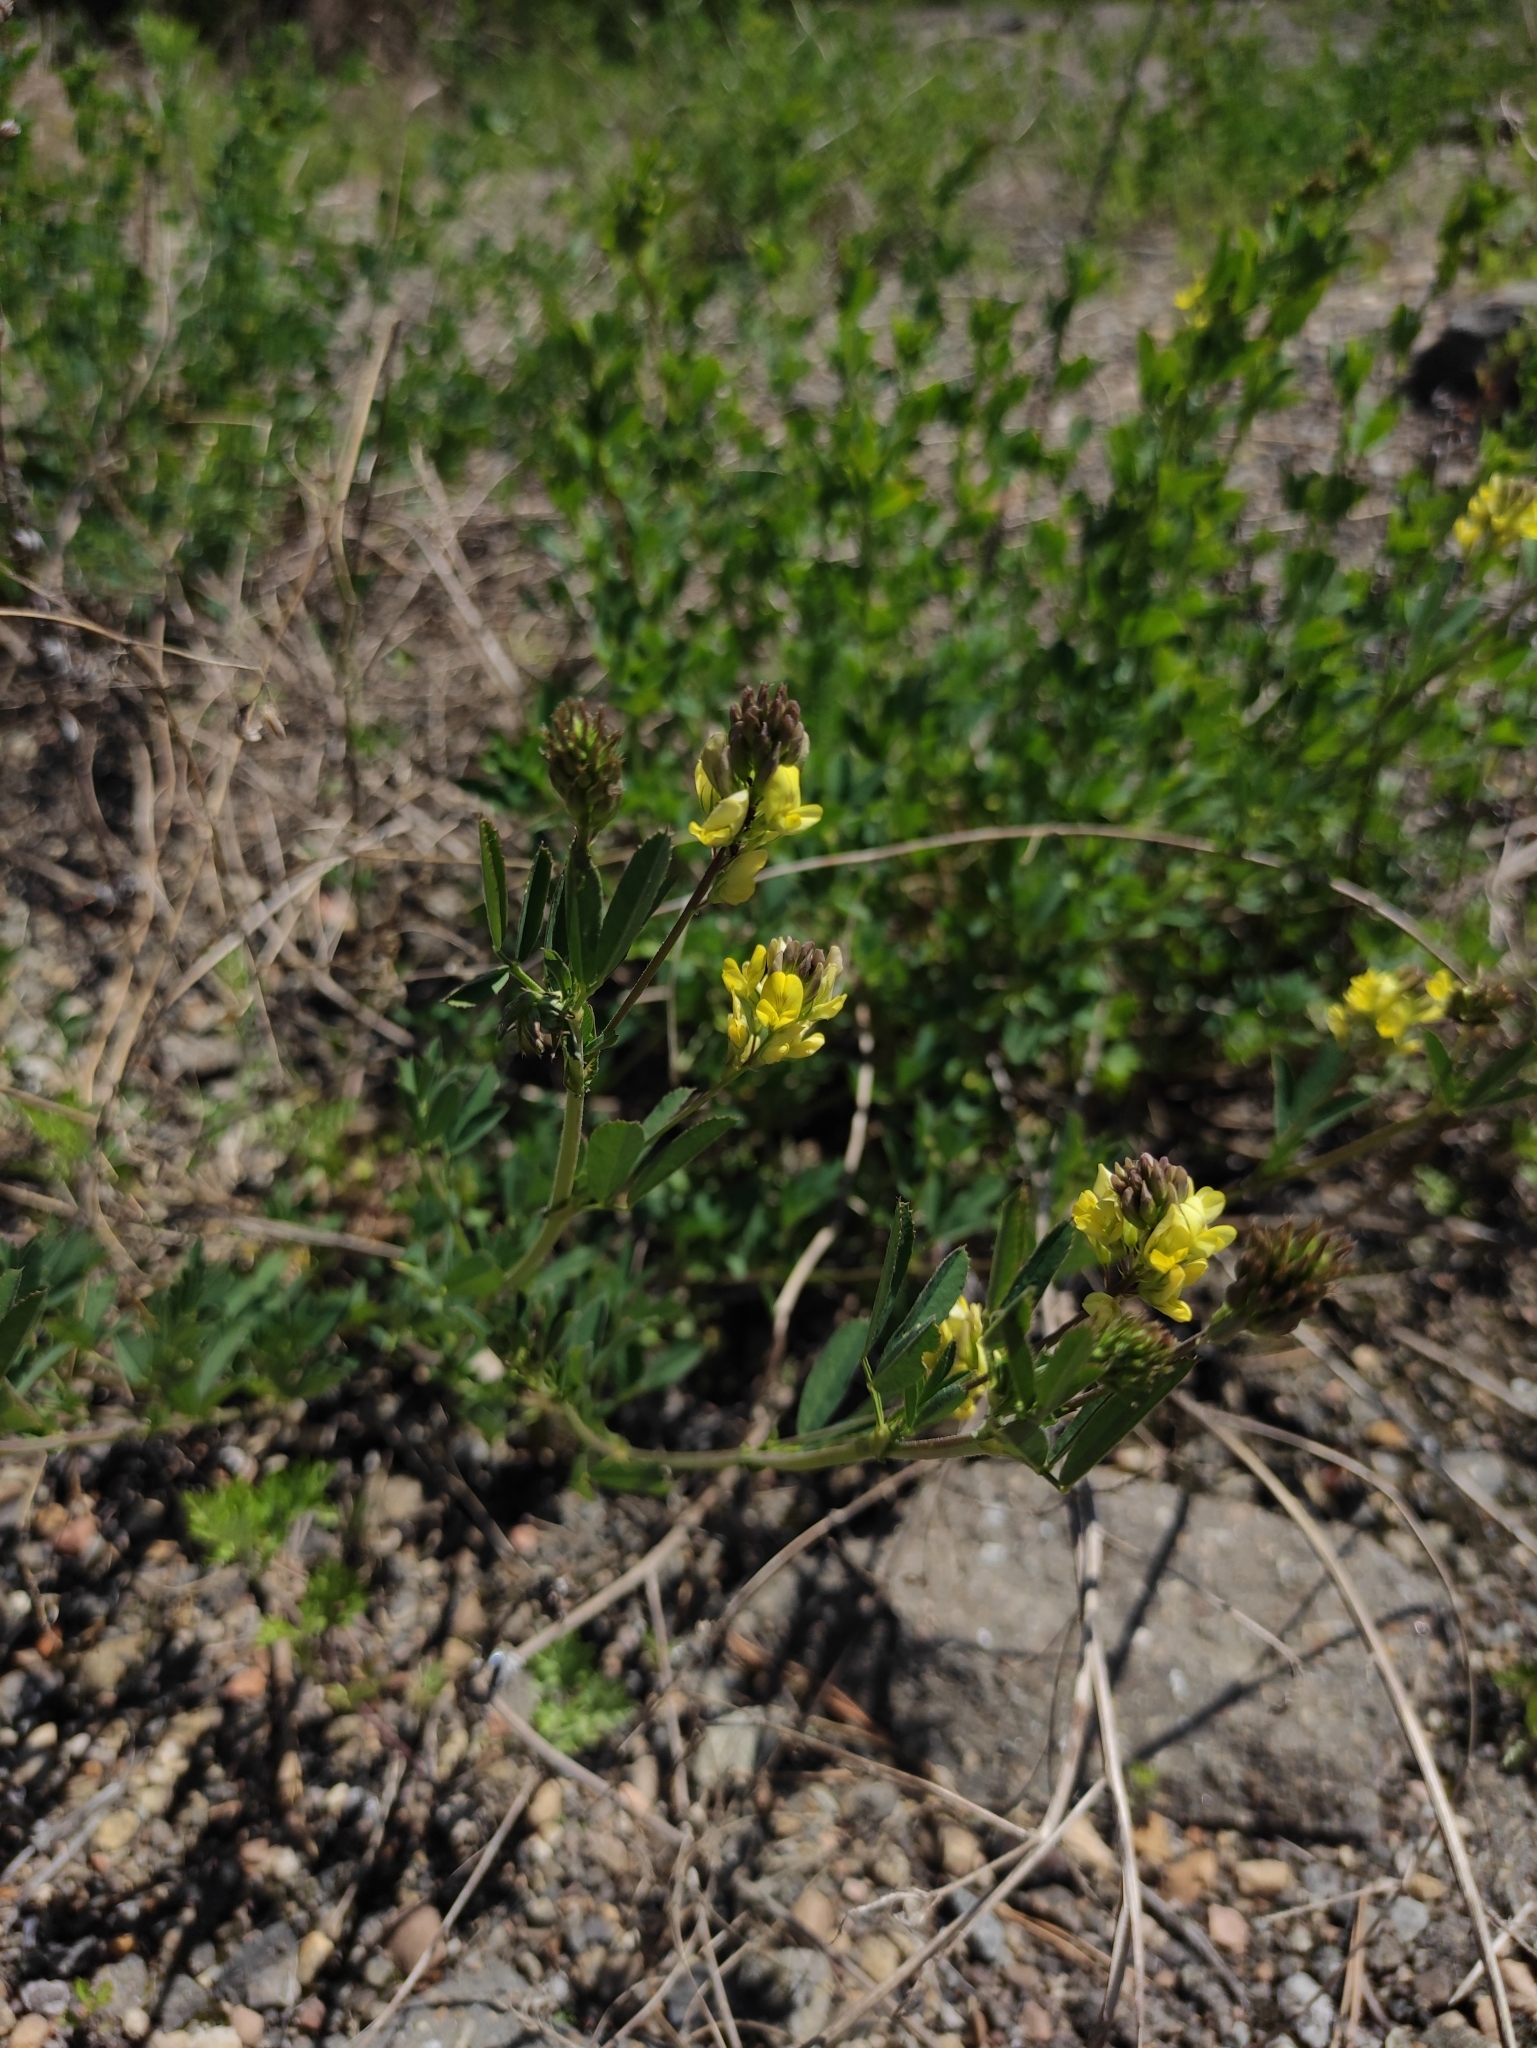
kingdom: Plantae
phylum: Tracheophyta
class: Magnoliopsida
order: Fabales
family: Fabaceae
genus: Medicago
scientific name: Medicago varia
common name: Sand lucerne
